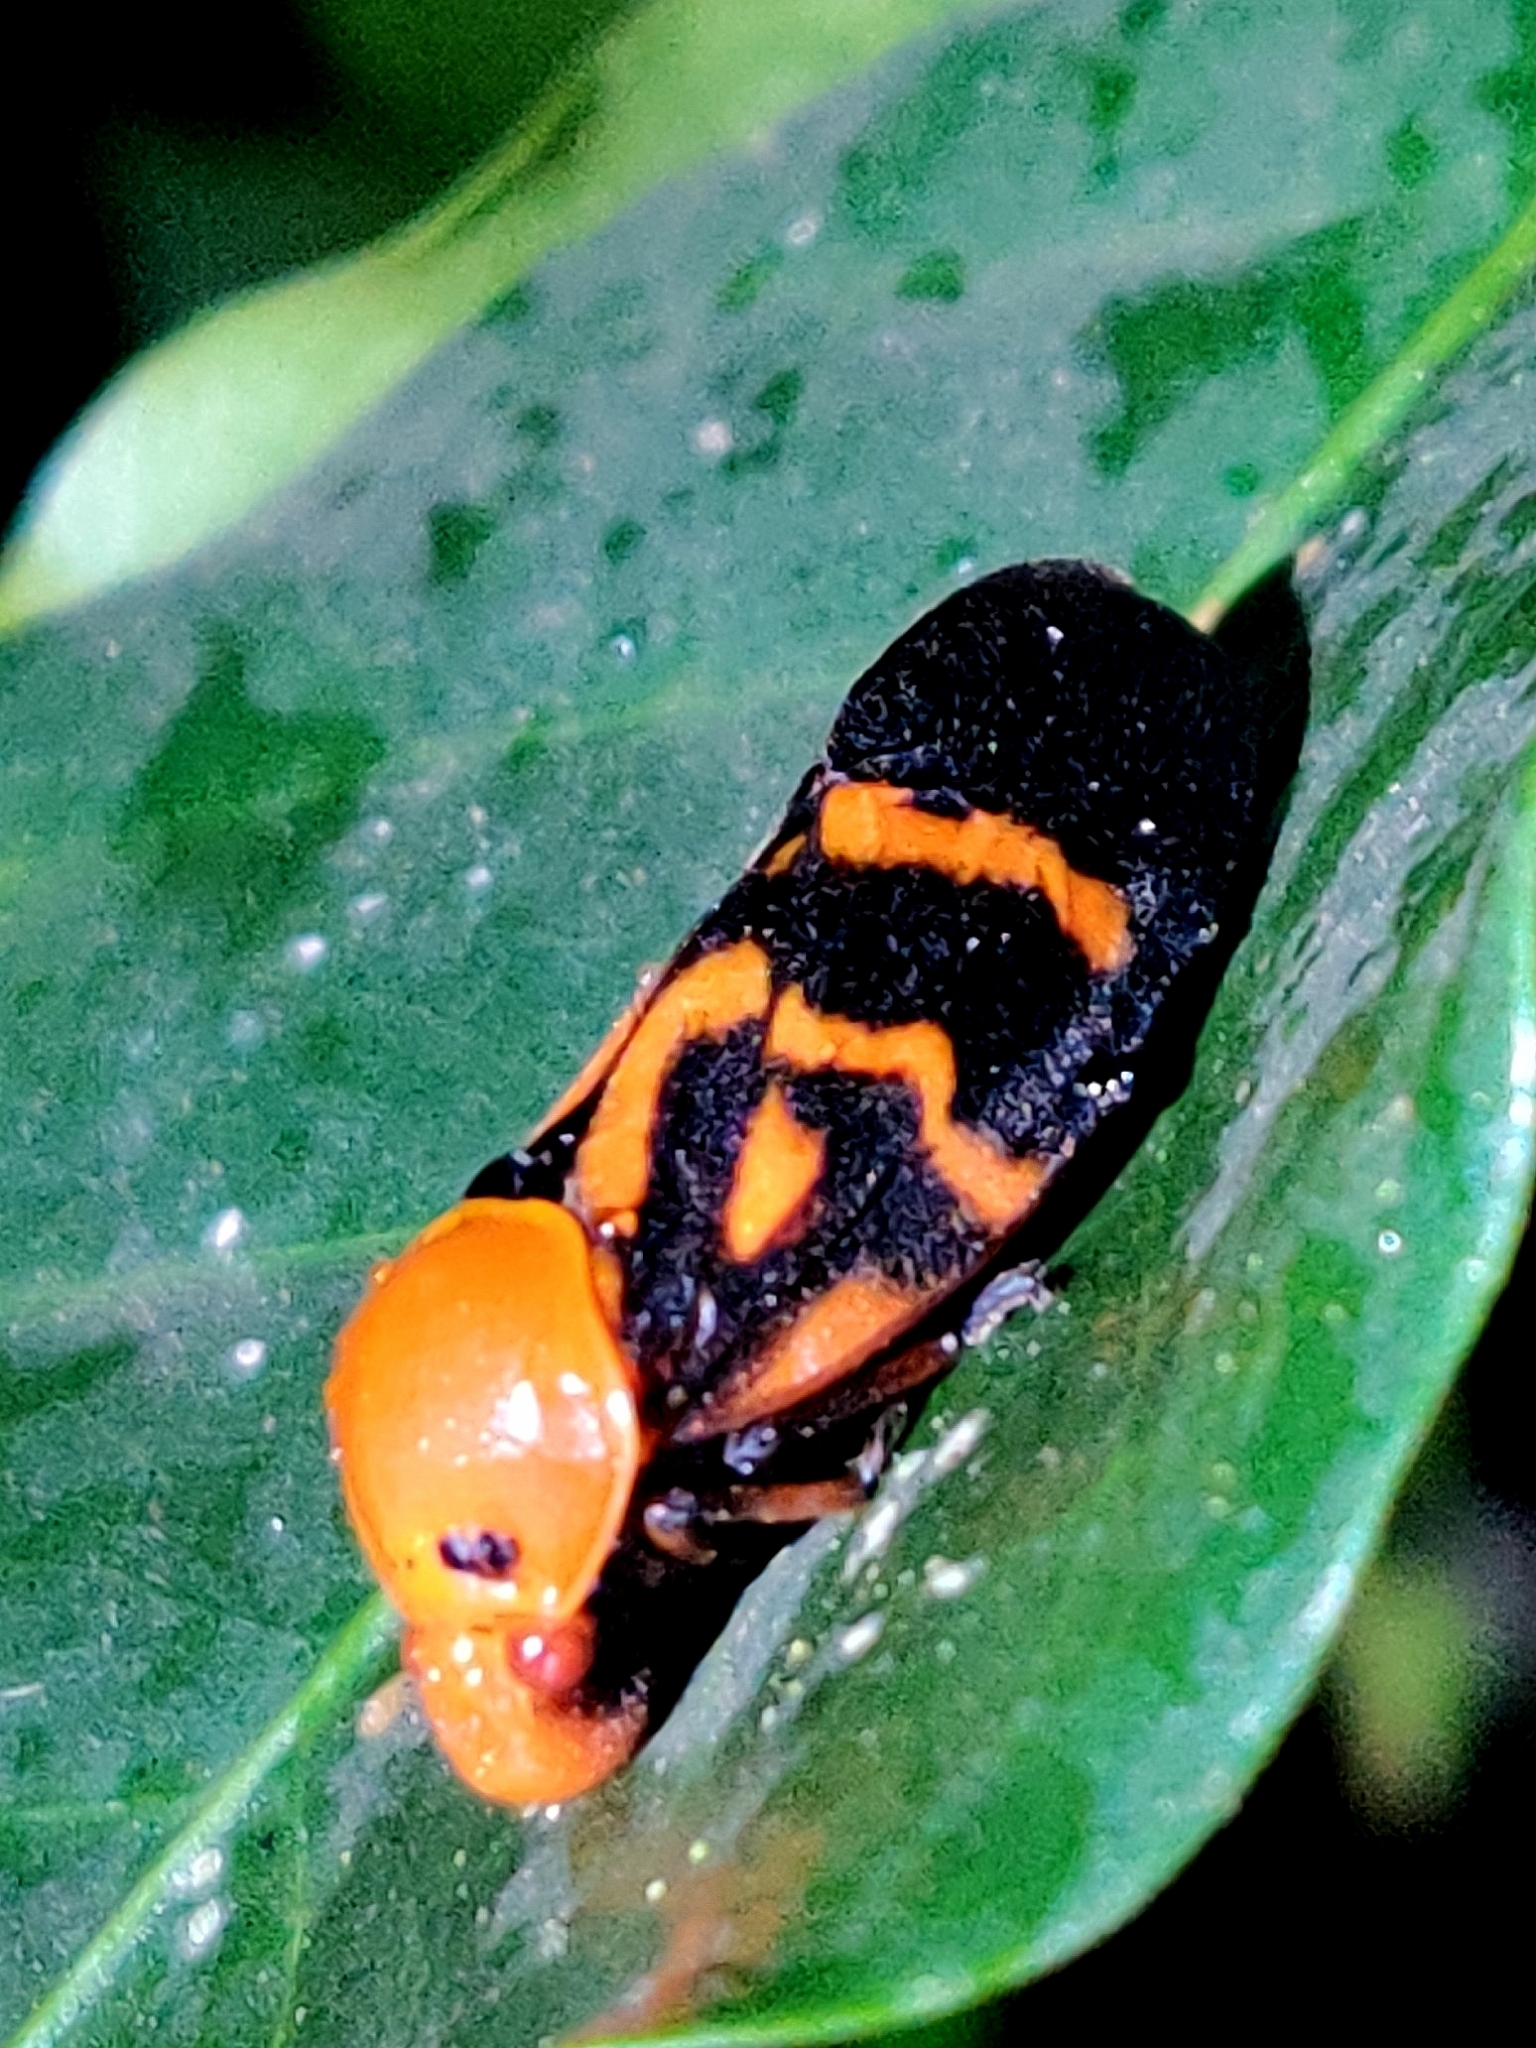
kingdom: Animalia
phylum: Arthropoda
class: Insecta
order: Hemiptera
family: Cercopidae
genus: Cosmoscarta
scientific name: Cosmoscarta naiteara
